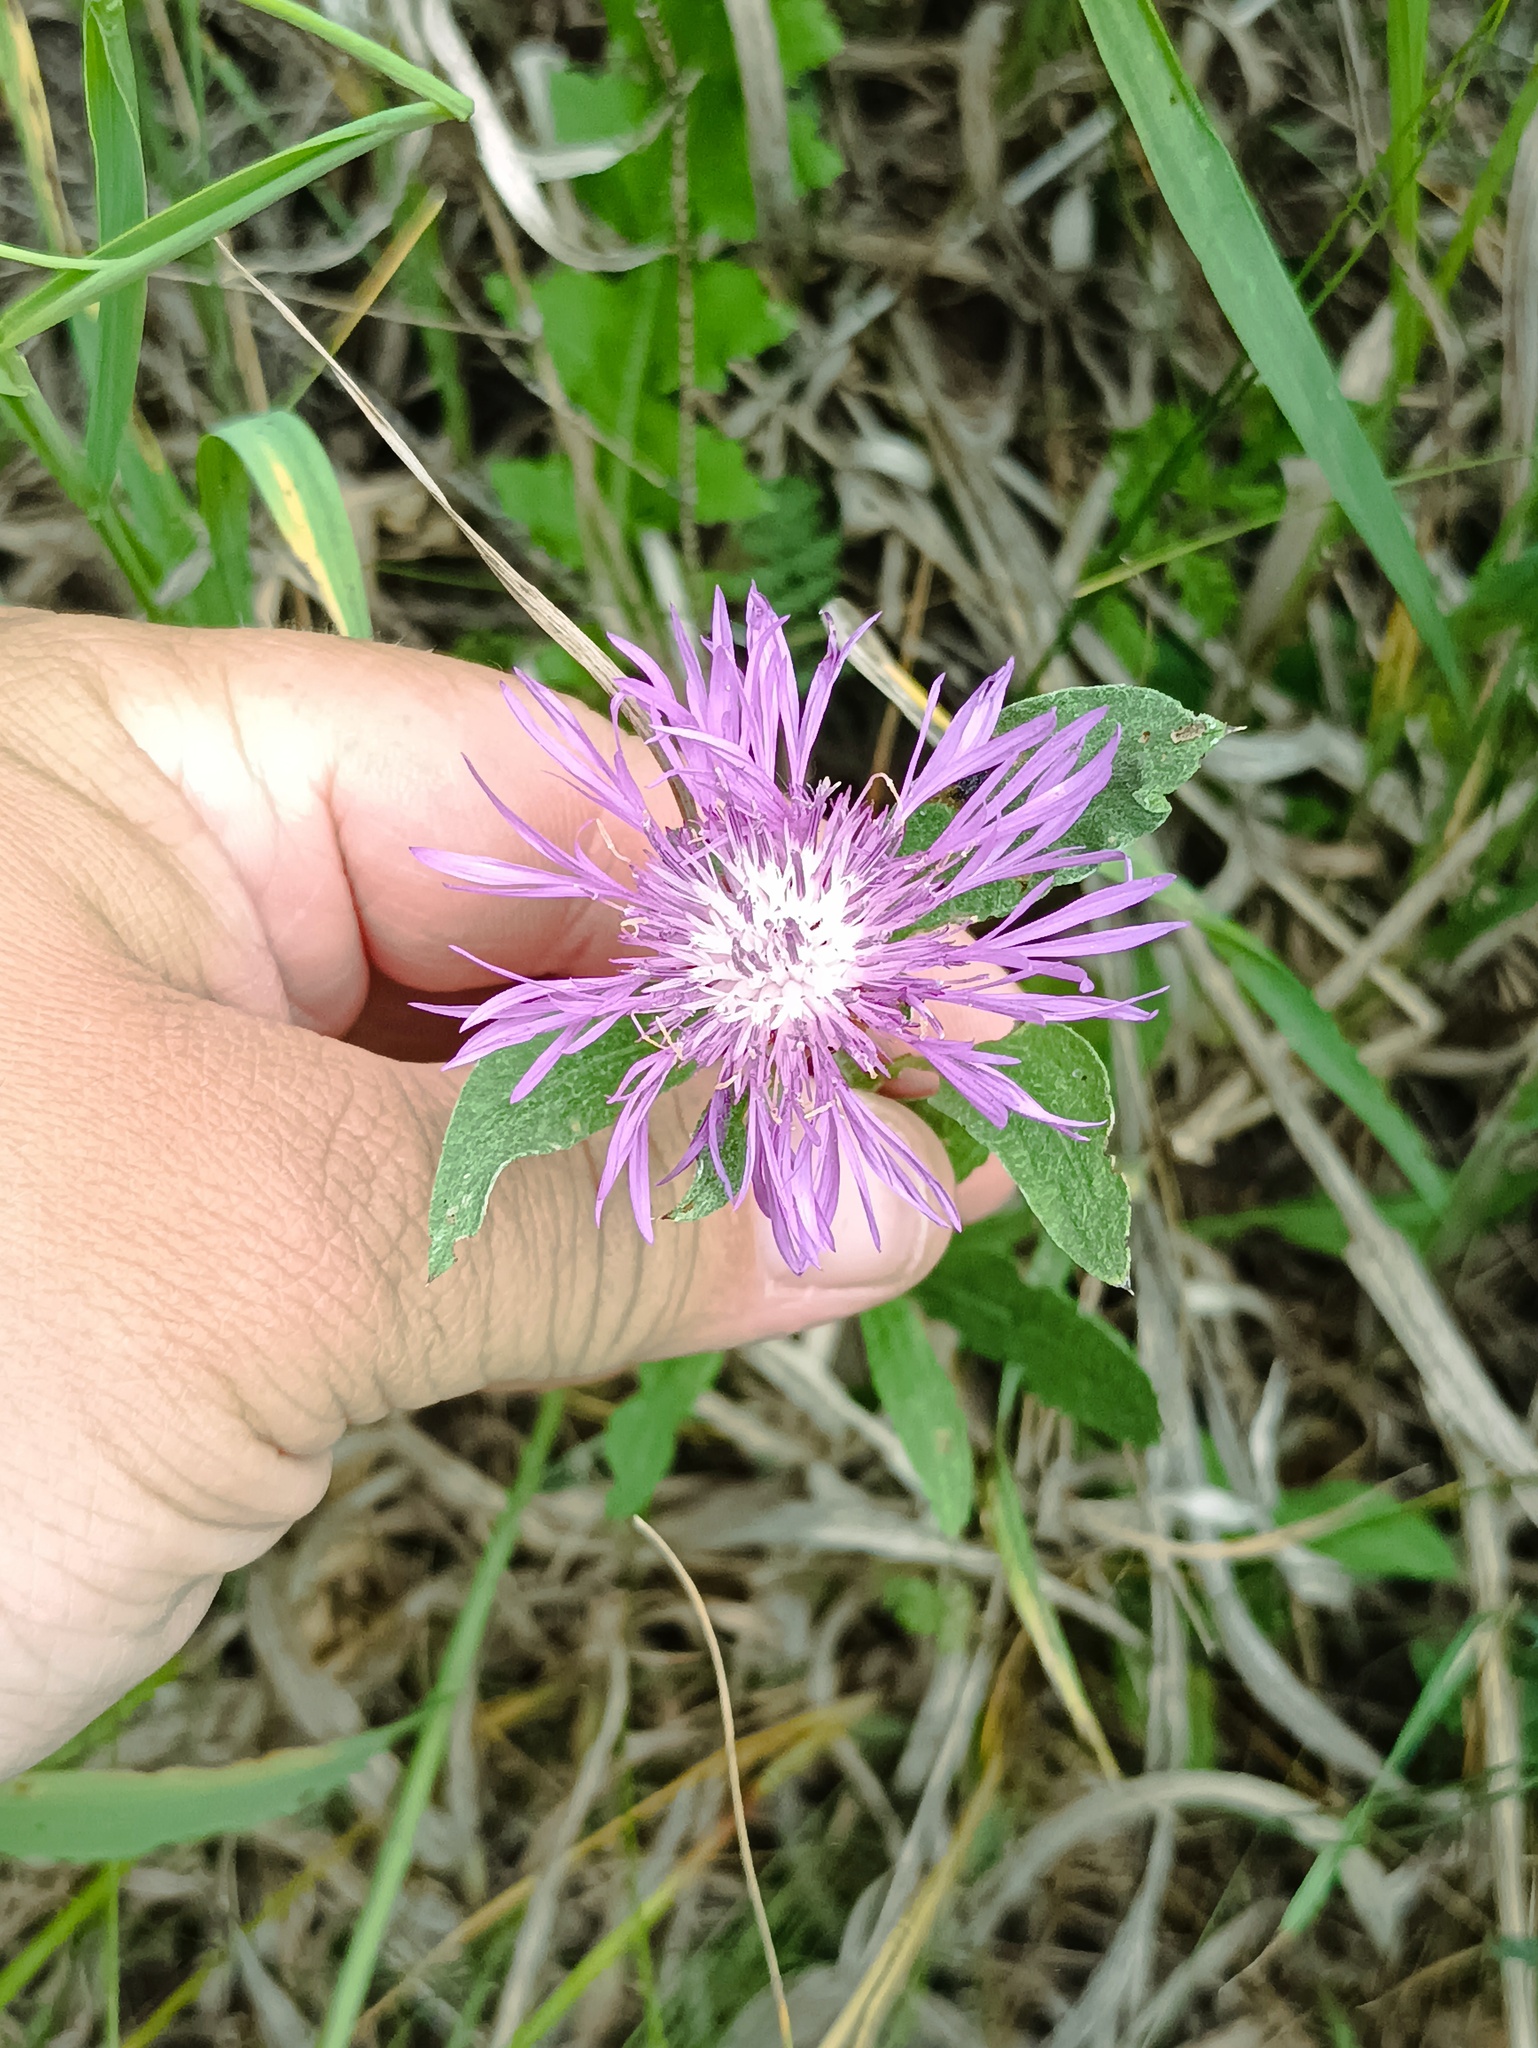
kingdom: Plantae
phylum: Tracheophyta
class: Magnoliopsida
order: Asterales
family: Asteraceae
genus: Centaurea
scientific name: Centaurea jacea
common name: Brown knapweed
